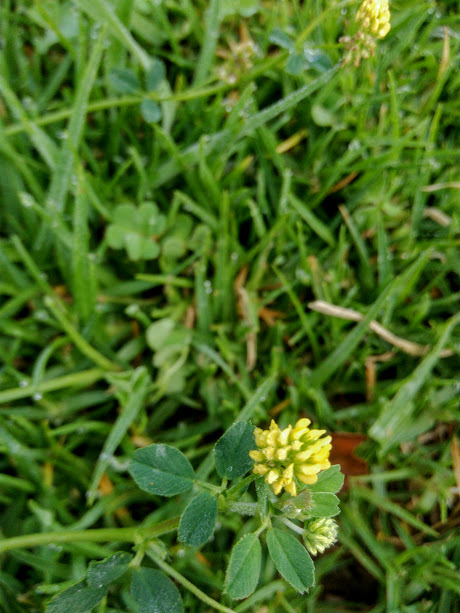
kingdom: Plantae
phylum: Tracheophyta
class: Magnoliopsida
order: Fabales
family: Fabaceae
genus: Medicago
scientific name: Medicago lupulina
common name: Black medick
